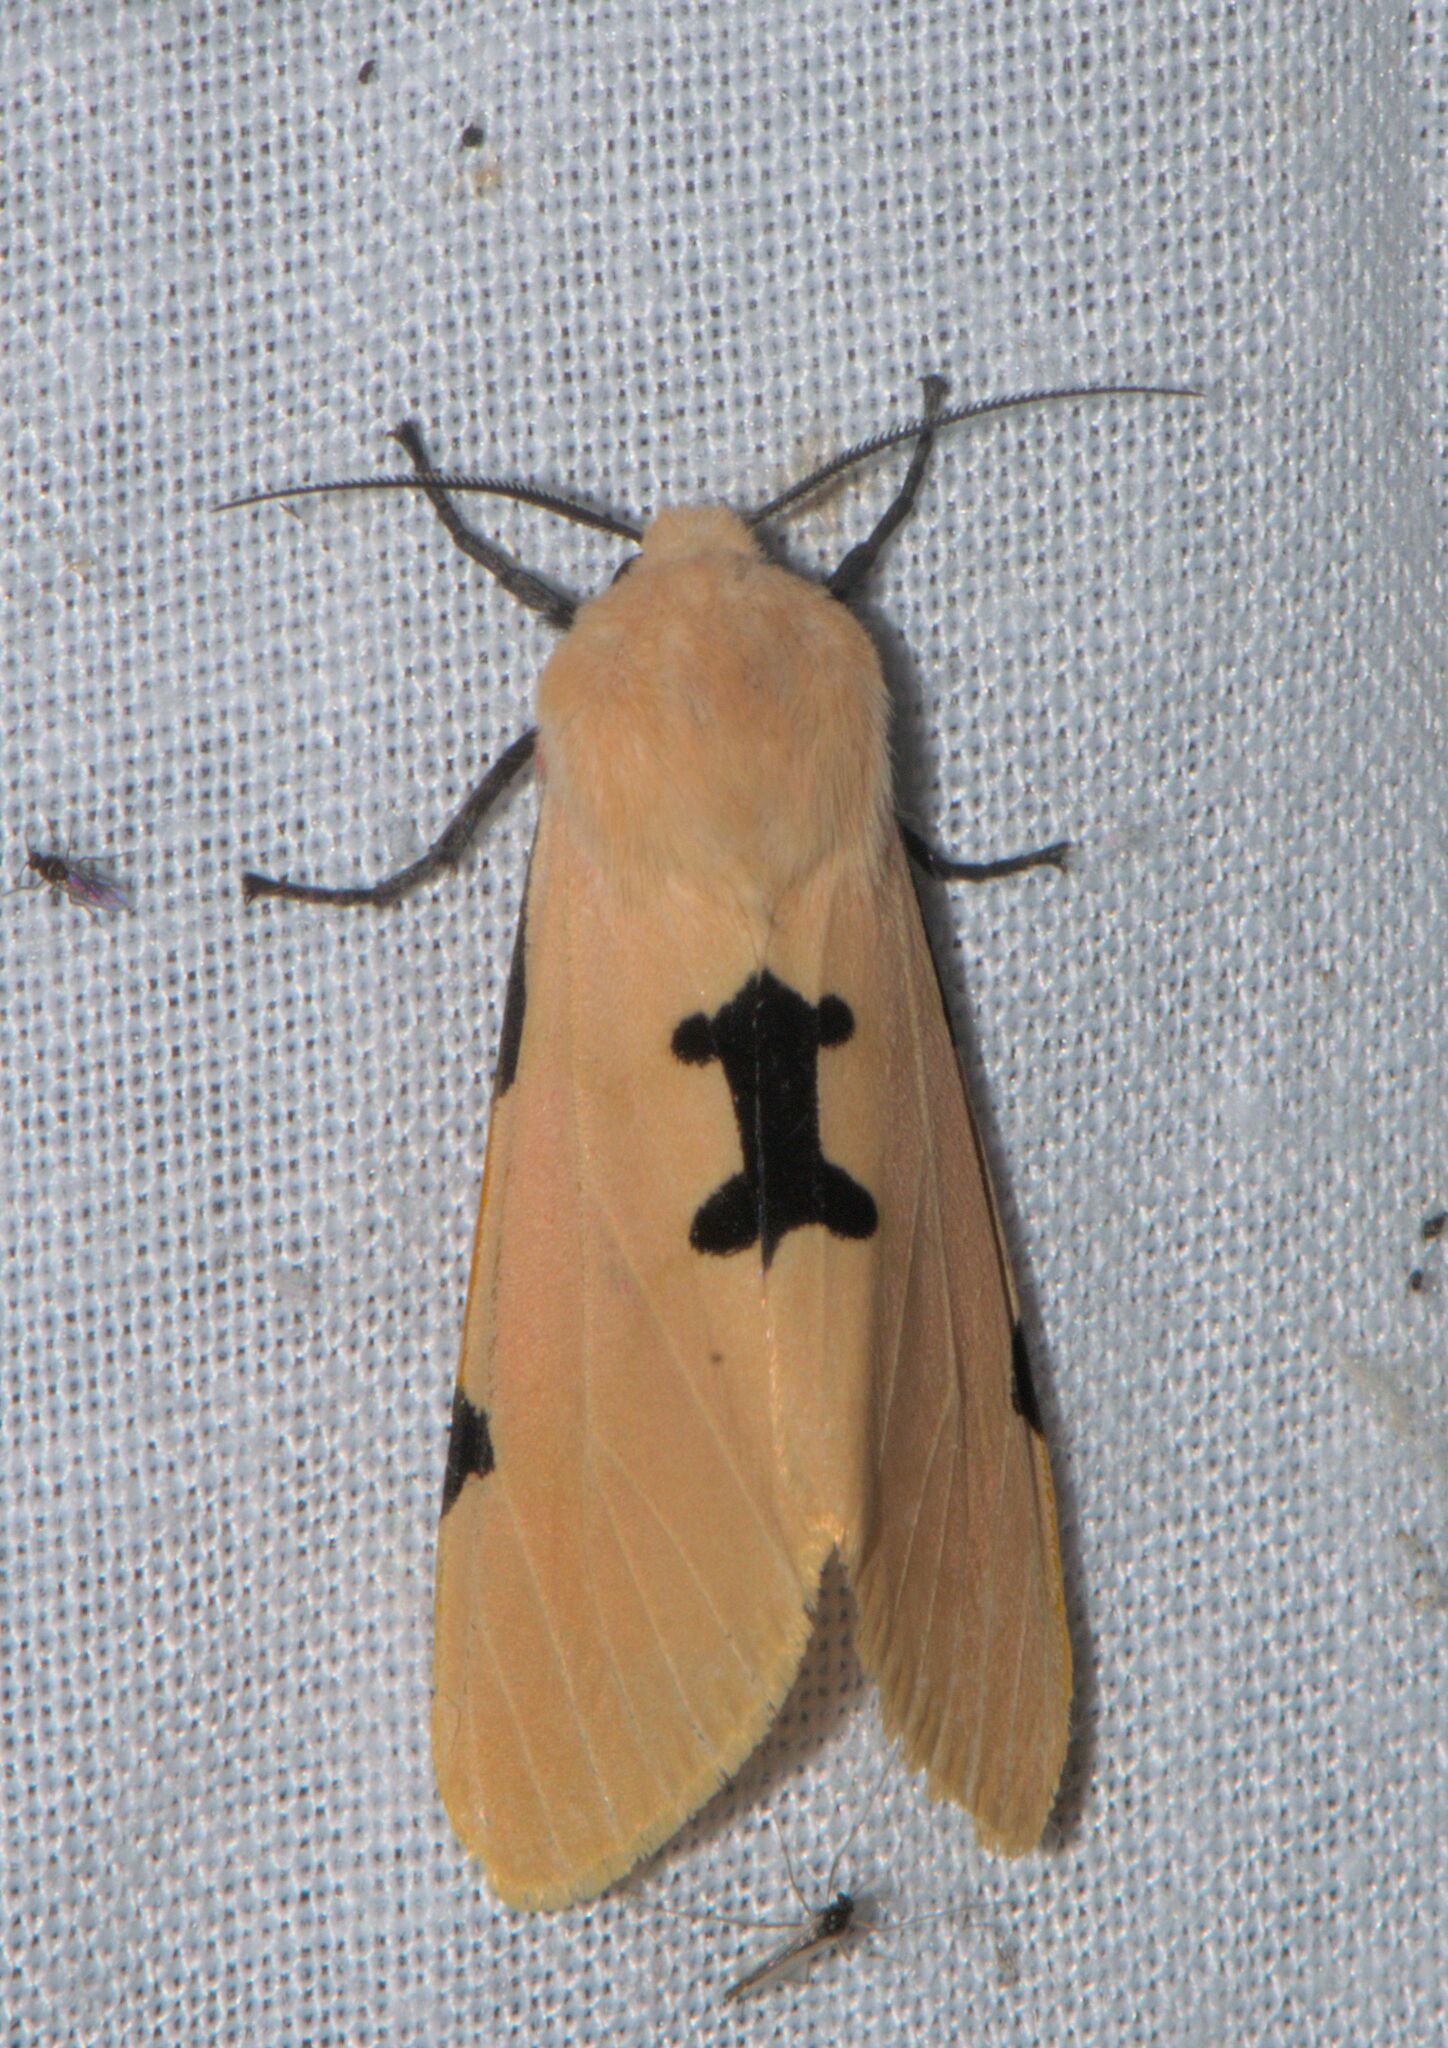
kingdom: Animalia
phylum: Arthropoda
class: Insecta
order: Lepidoptera
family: Erebidae
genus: Spilarctia
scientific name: Spilarctia
